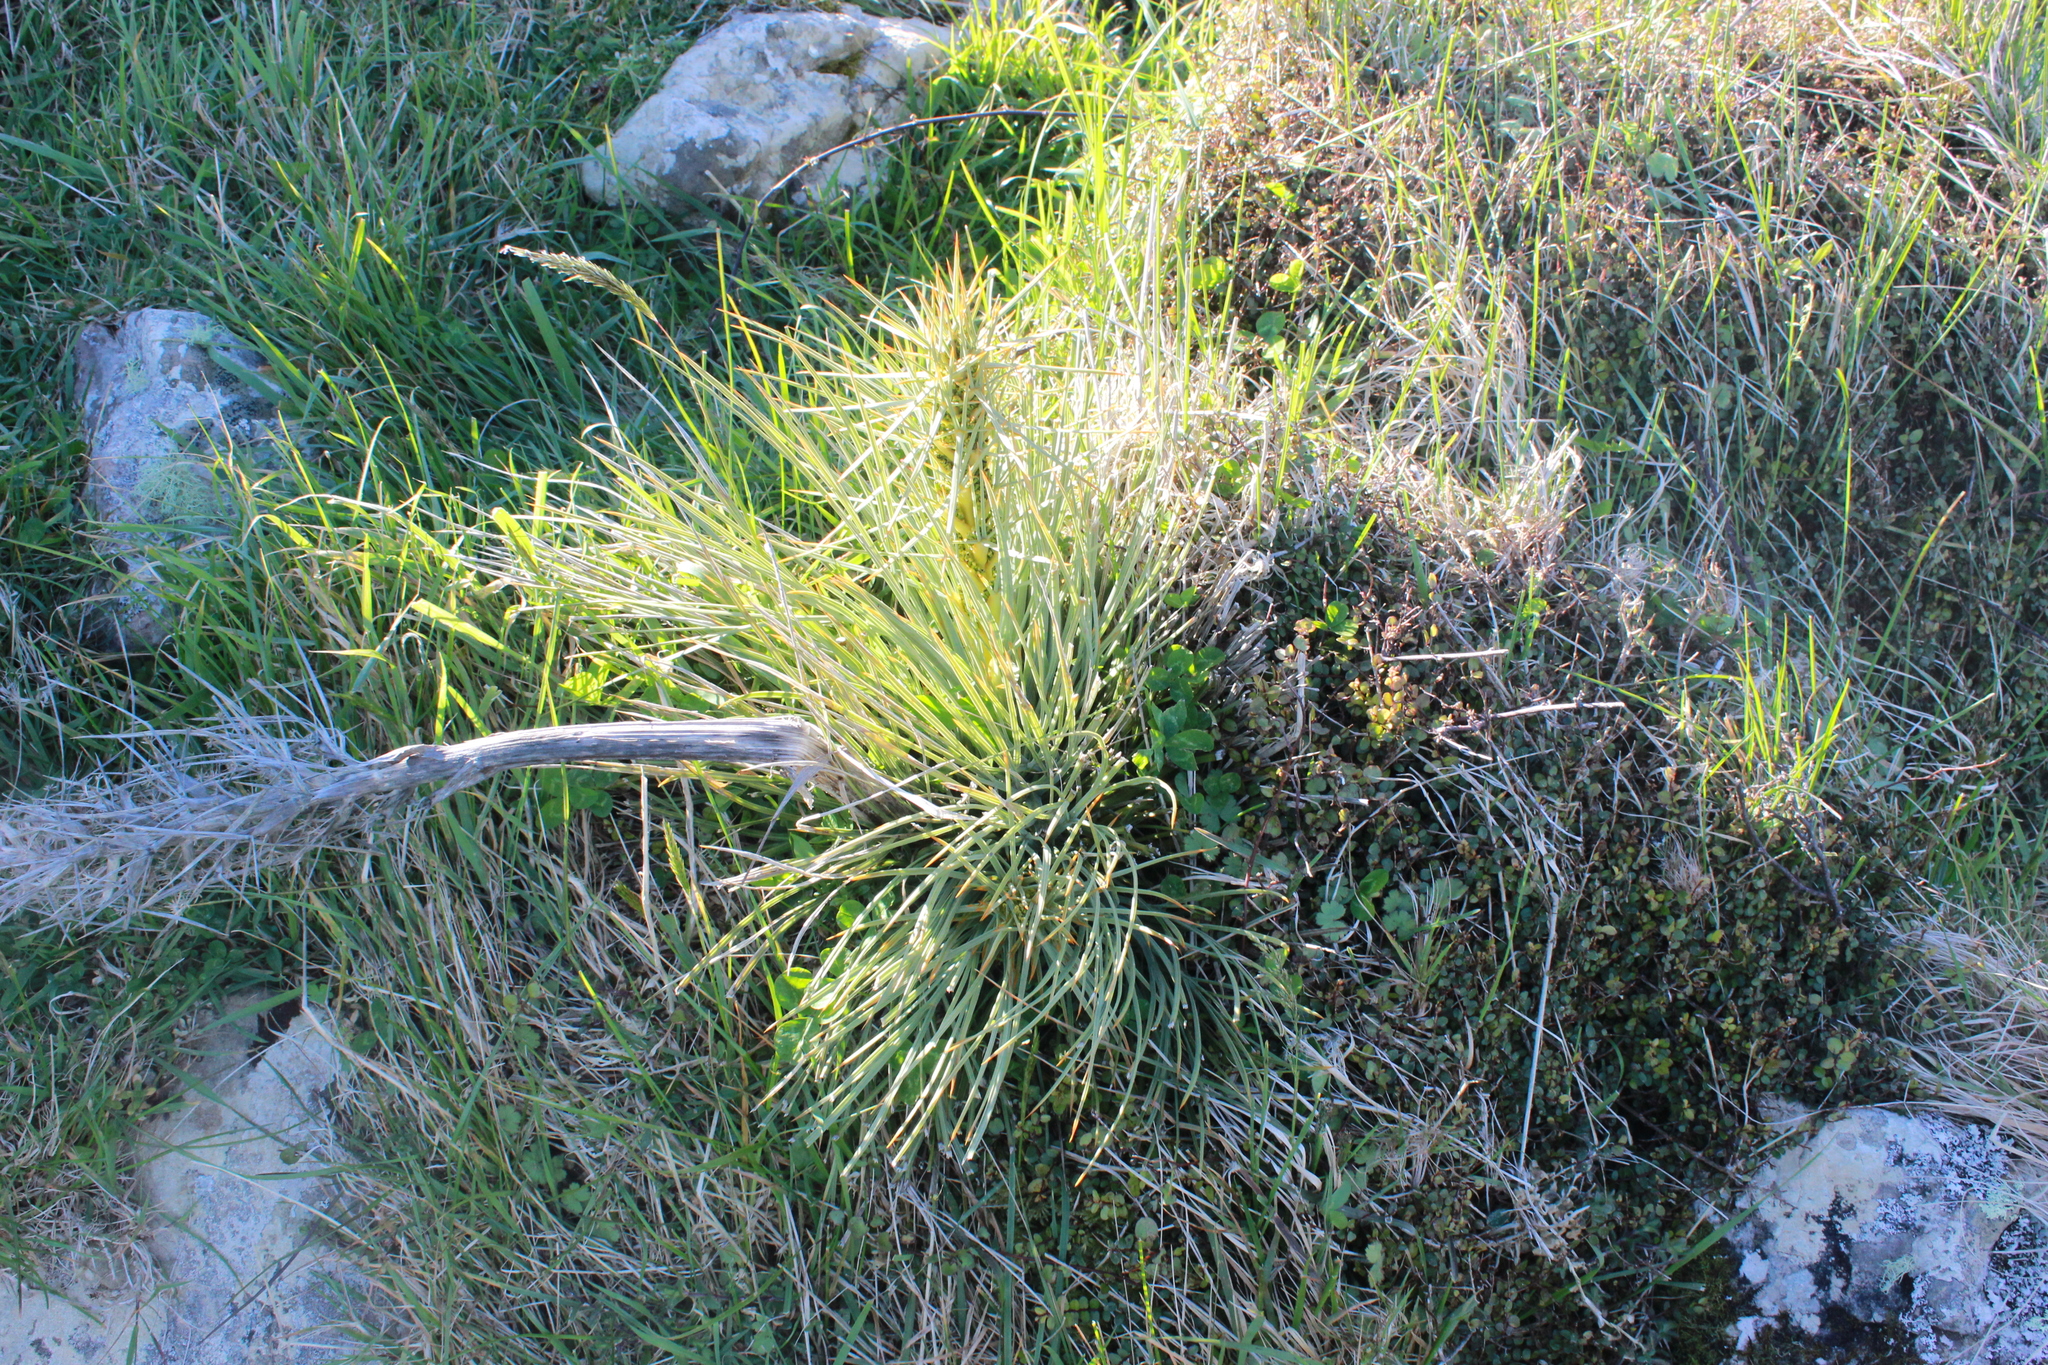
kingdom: Plantae
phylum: Tracheophyta
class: Magnoliopsida
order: Apiales
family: Apiaceae
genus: Aciphylla
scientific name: Aciphylla squarrosa
